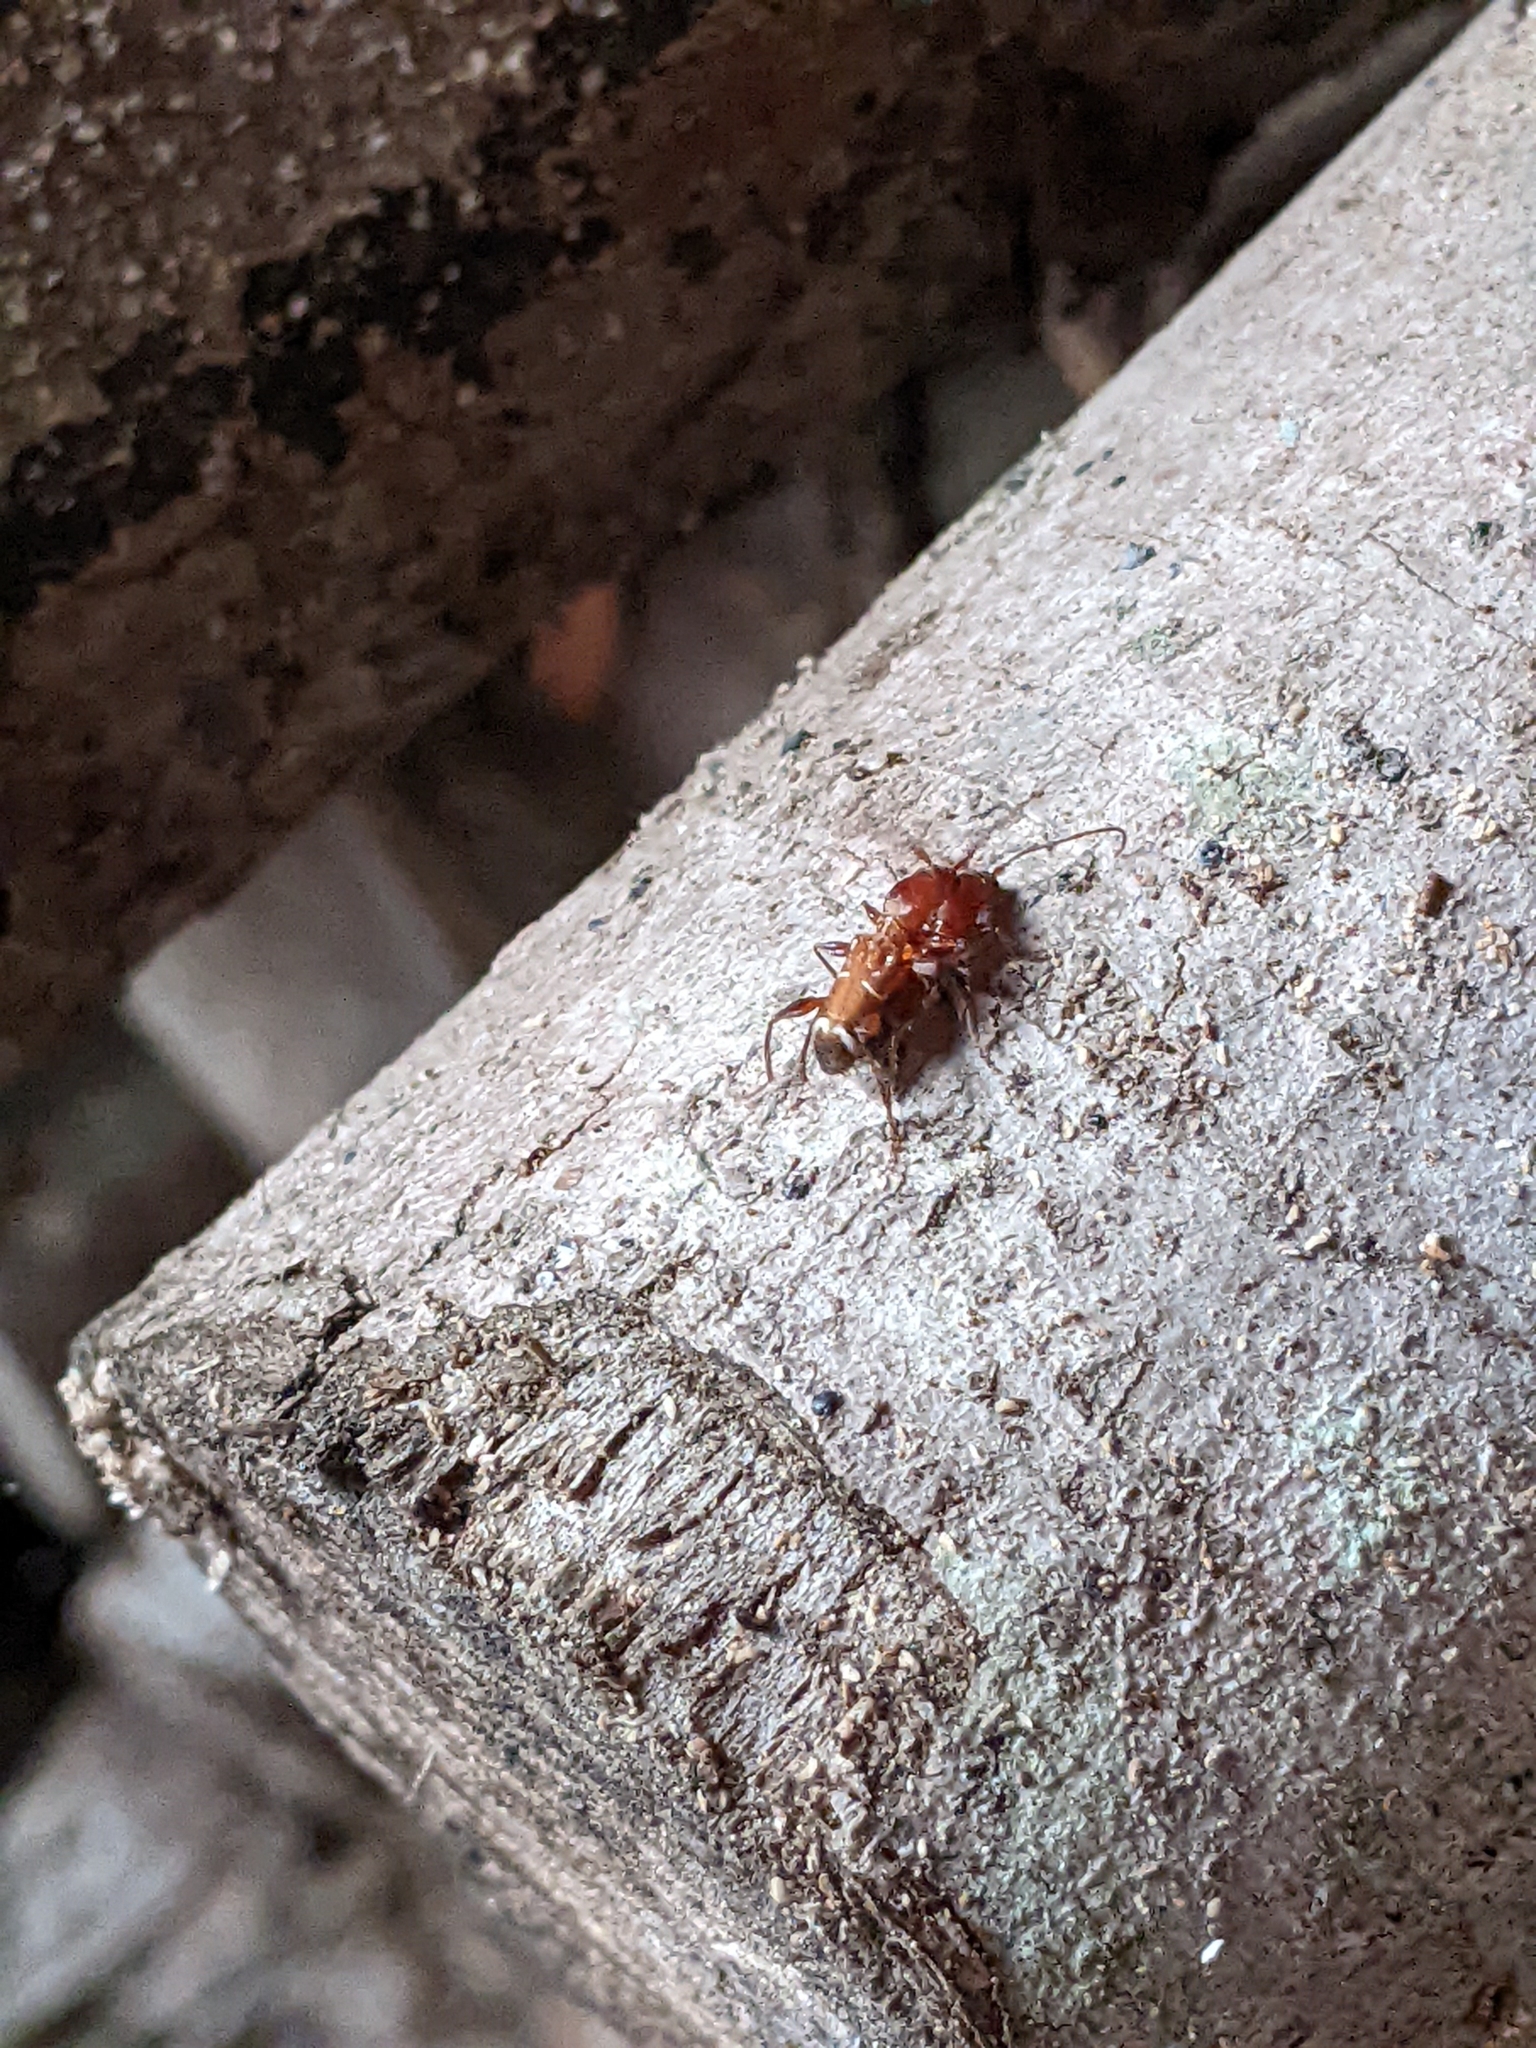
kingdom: Animalia
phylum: Arthropoda
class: Insecta
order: Coleoptera
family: Cerambycidae
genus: Euderces
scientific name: Euderces pini
